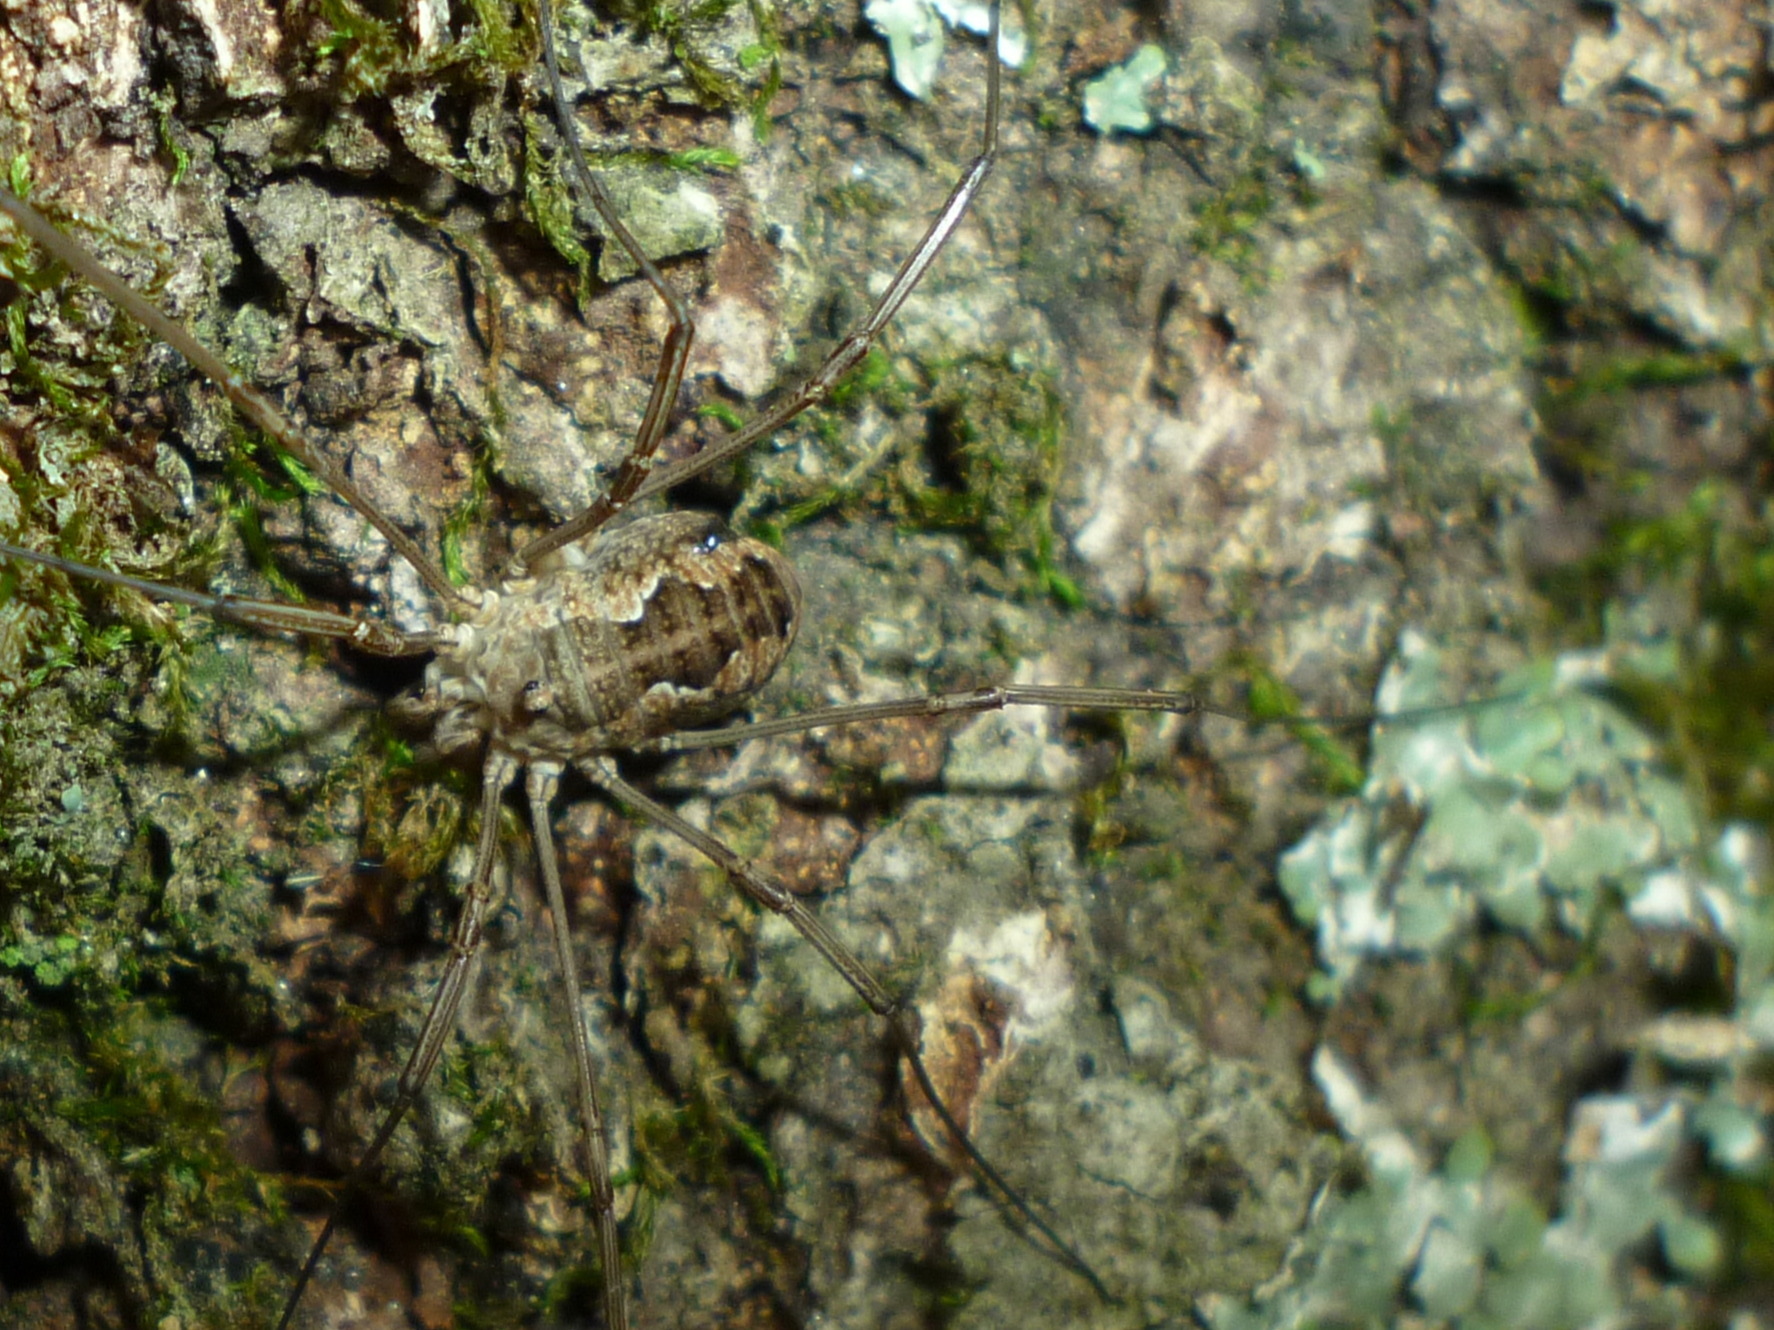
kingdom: Animalia
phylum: Arthropoda
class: Arachnida
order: Opiliones
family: Phalangiidae
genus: Phalangium
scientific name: Phalangium opilio
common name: Daddy longleg
